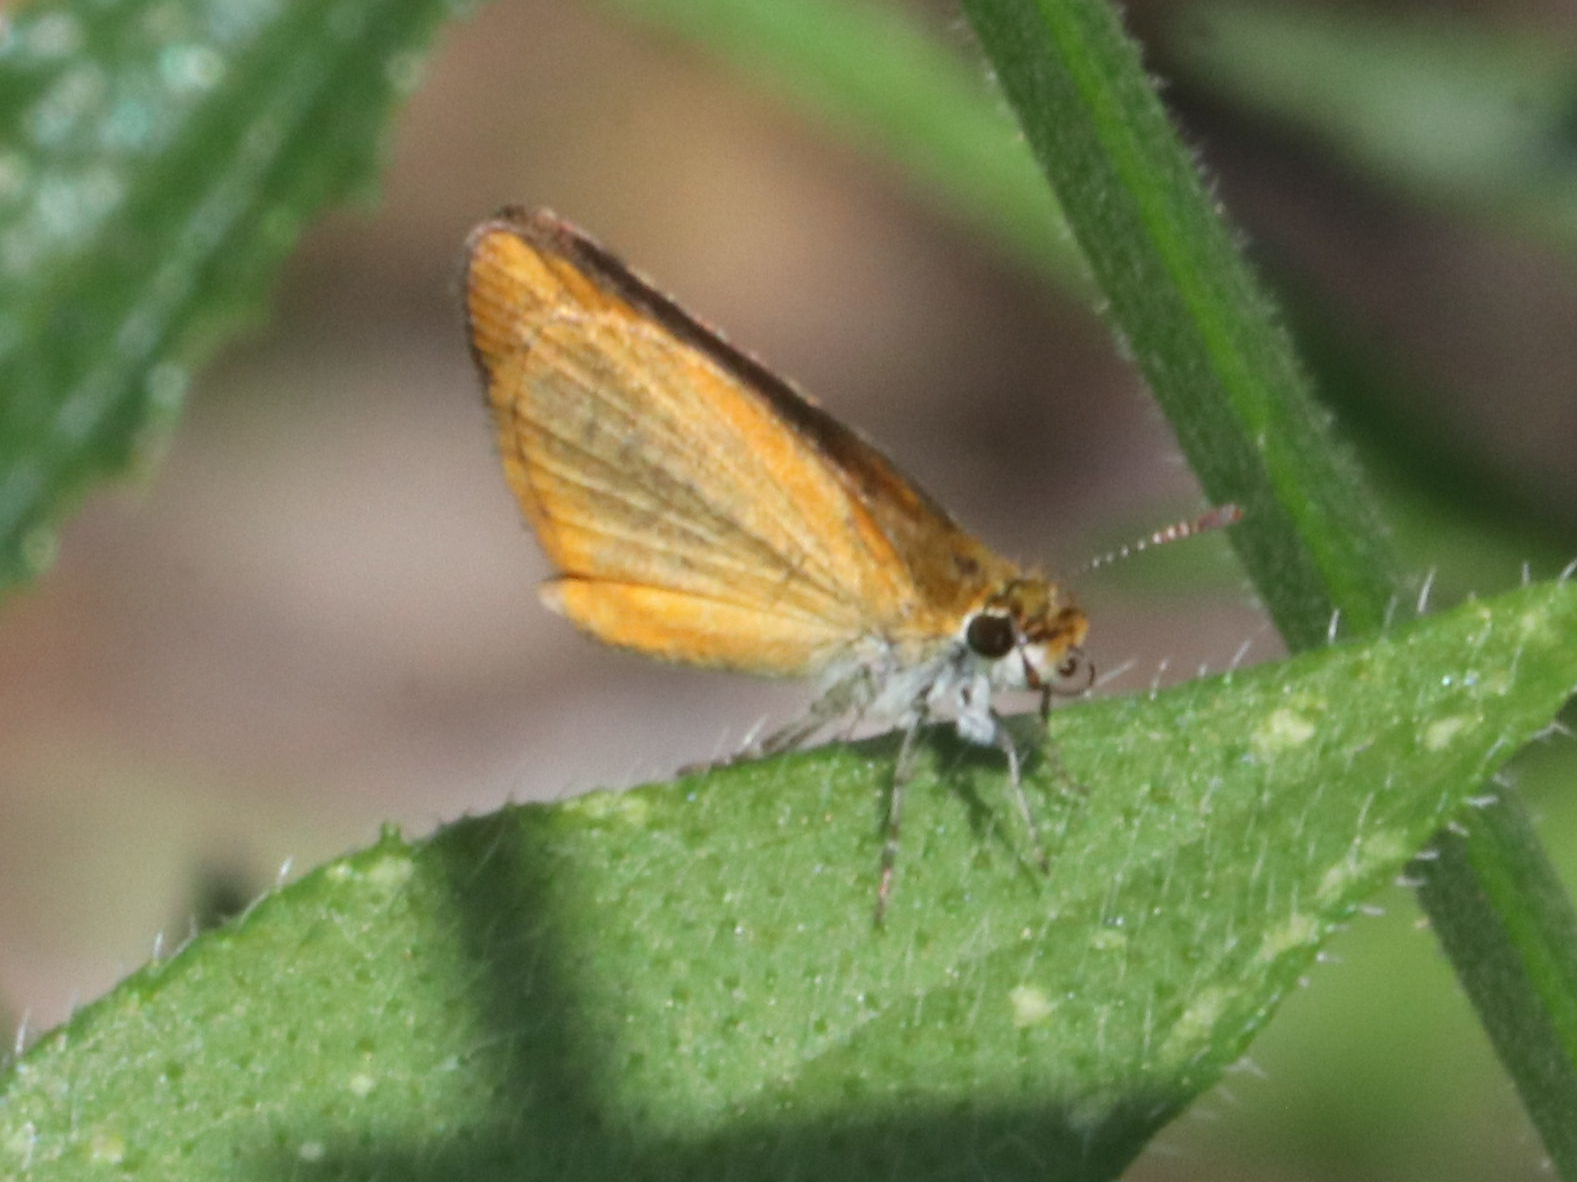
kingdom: Animalia
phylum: Arthropoda
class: Insecta
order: Lepidoptera
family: Hesperiidae
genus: Ancyloxypha
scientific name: Ancyloxypha numitor
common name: Least skipper
